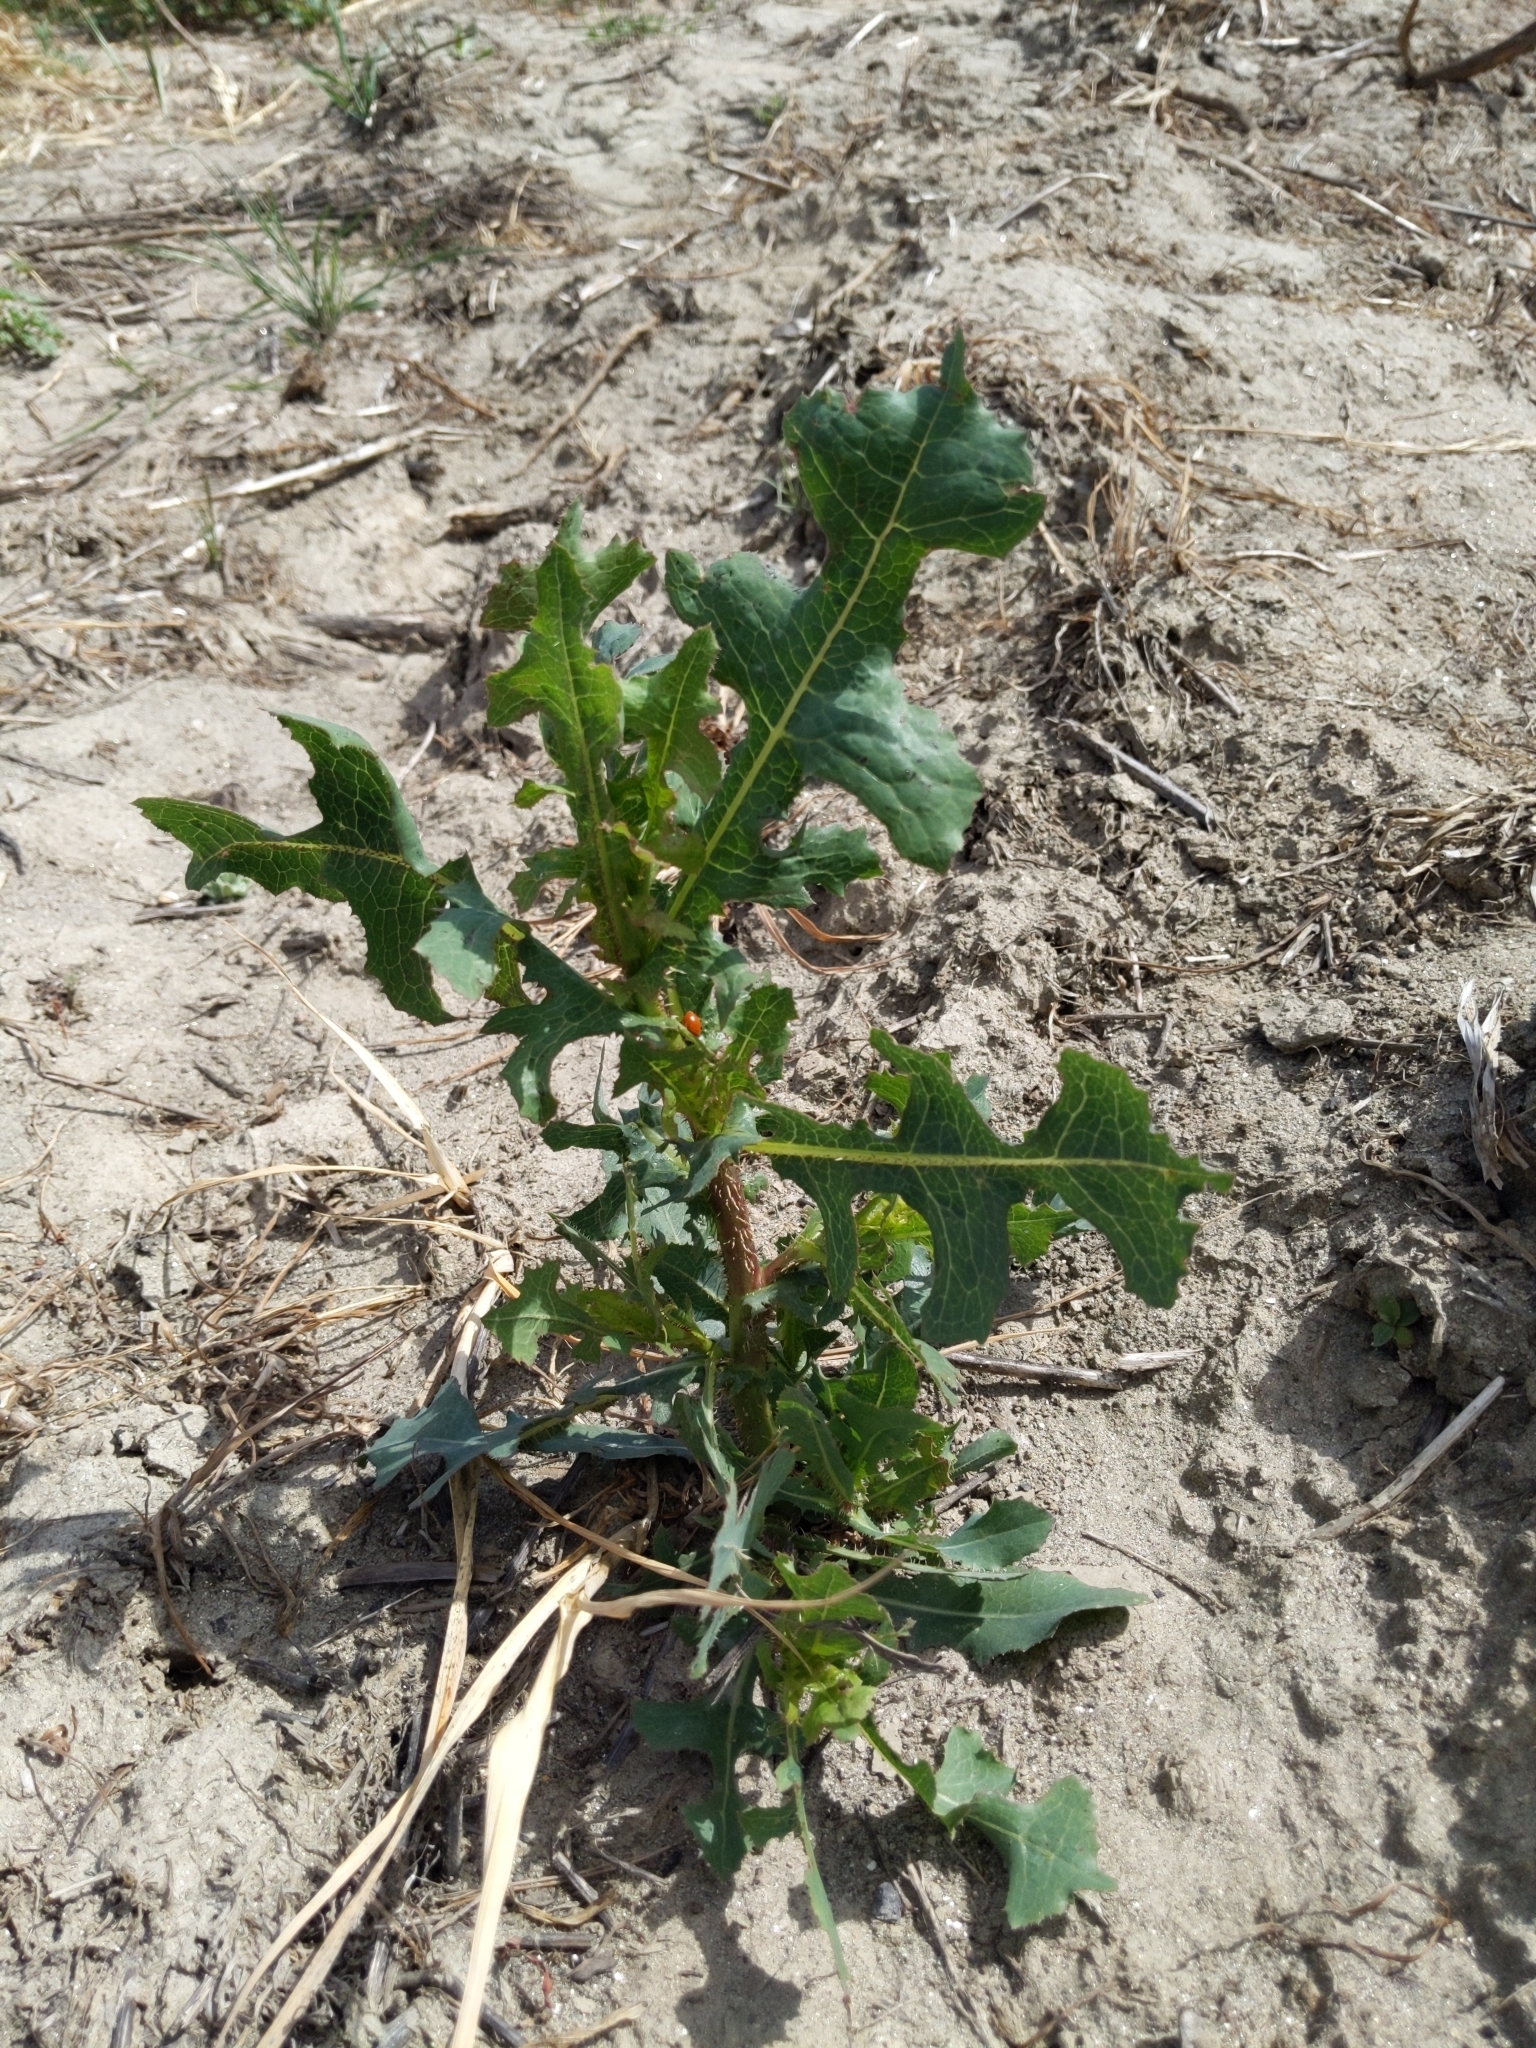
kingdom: Plantae
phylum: Tracheophyta
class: Magnoliopsida
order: Asterales
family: Asteraceae
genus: Lactuca
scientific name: Lactuca serriola
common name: Prickly lettuce
